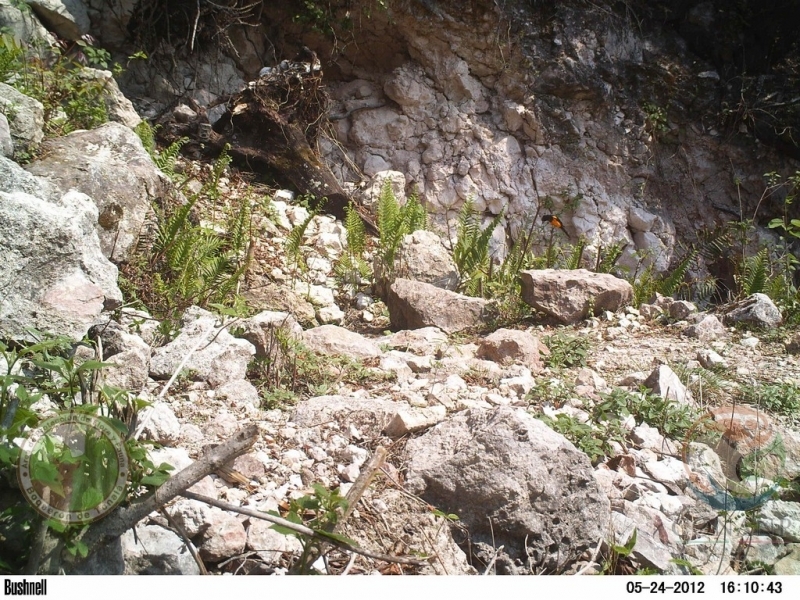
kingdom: Animalia
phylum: Chordata
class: Aves
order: Passeriformes
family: Icteridae
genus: Icterus
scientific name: Icterus wagleri
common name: Black-vented oriole
